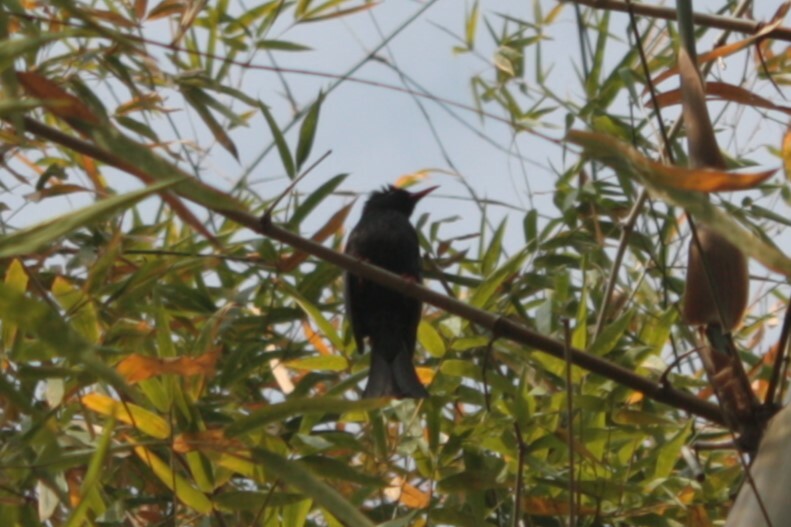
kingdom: Animalia
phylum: Chordata
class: Aves
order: Passeriformes
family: Pycnonotidae
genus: Hypsipetes
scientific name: Hypsipetes leucocephalus
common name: Black bulbul
